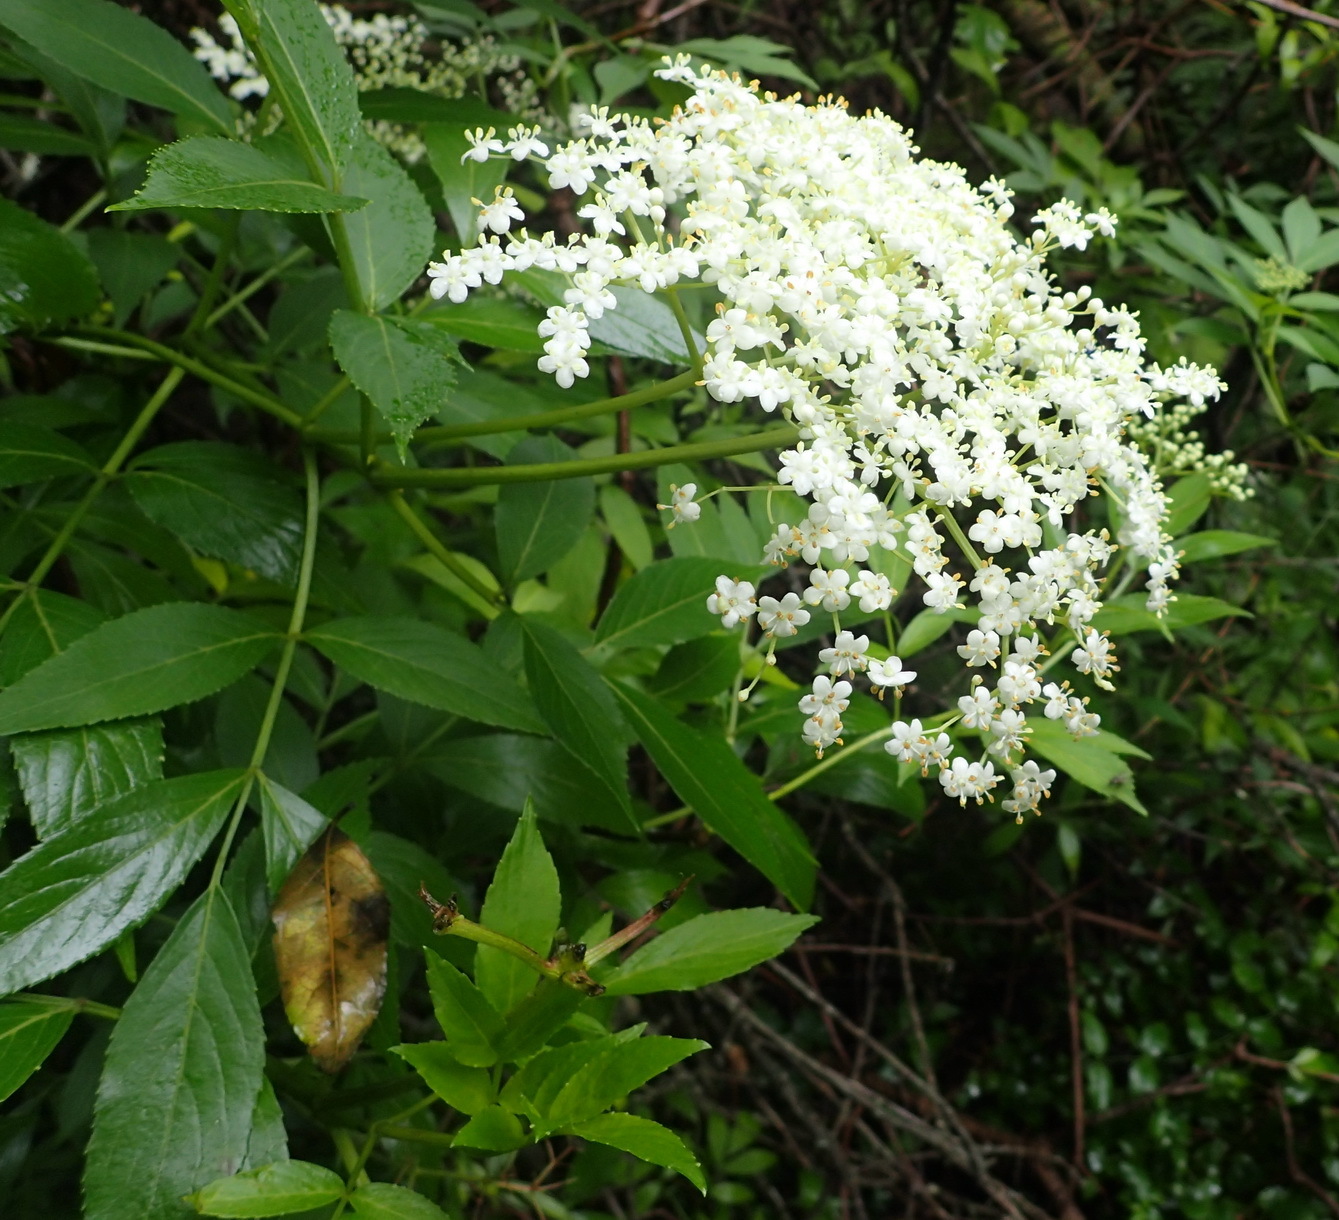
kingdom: Plantae
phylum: Tracheophyta
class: Magnoliopsida
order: Dipsacales
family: Viburnaceae
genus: Sambucus
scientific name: Sambucus nigra
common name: Elder
